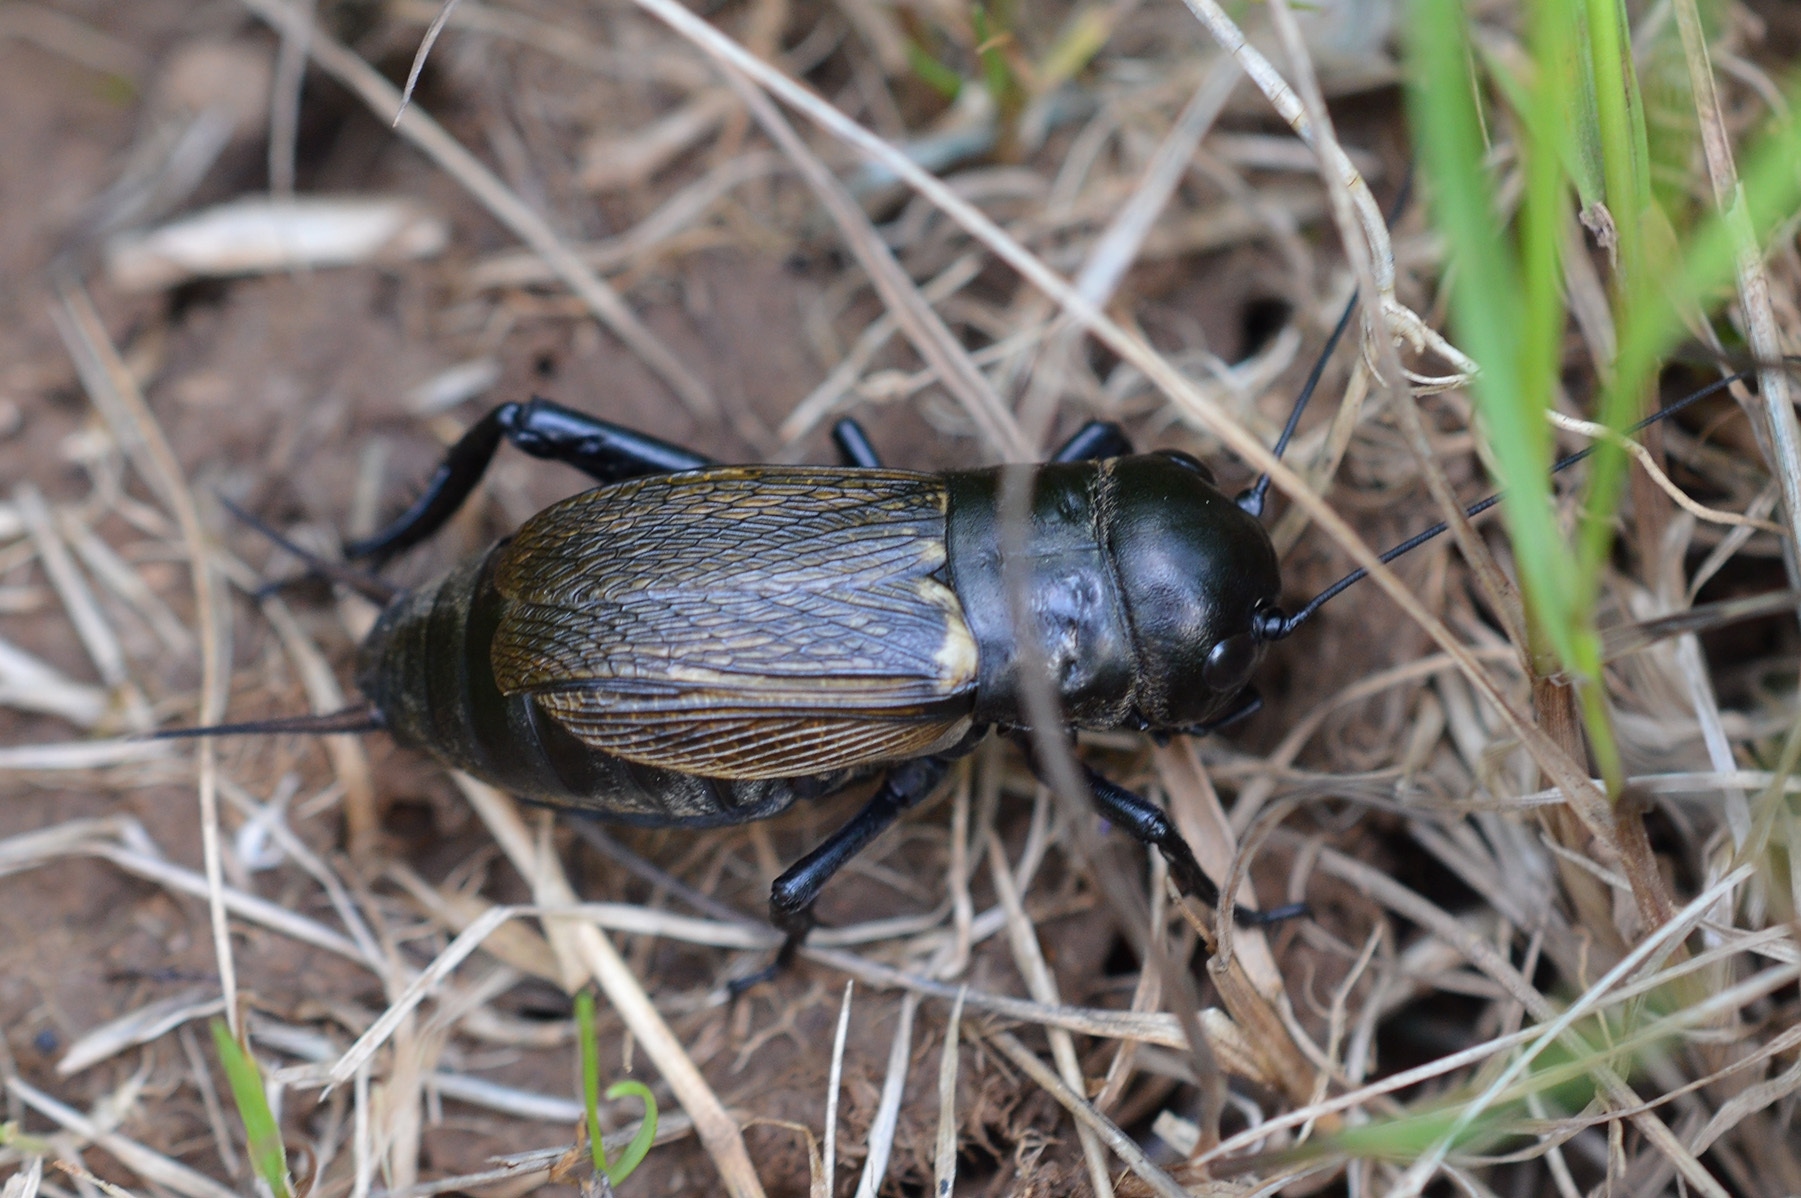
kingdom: Animalia
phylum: Arthropoda
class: Insecta
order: Orthoptera
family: Gryllidae
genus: Gryllus
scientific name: Gryllus campestris
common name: Field cricket
